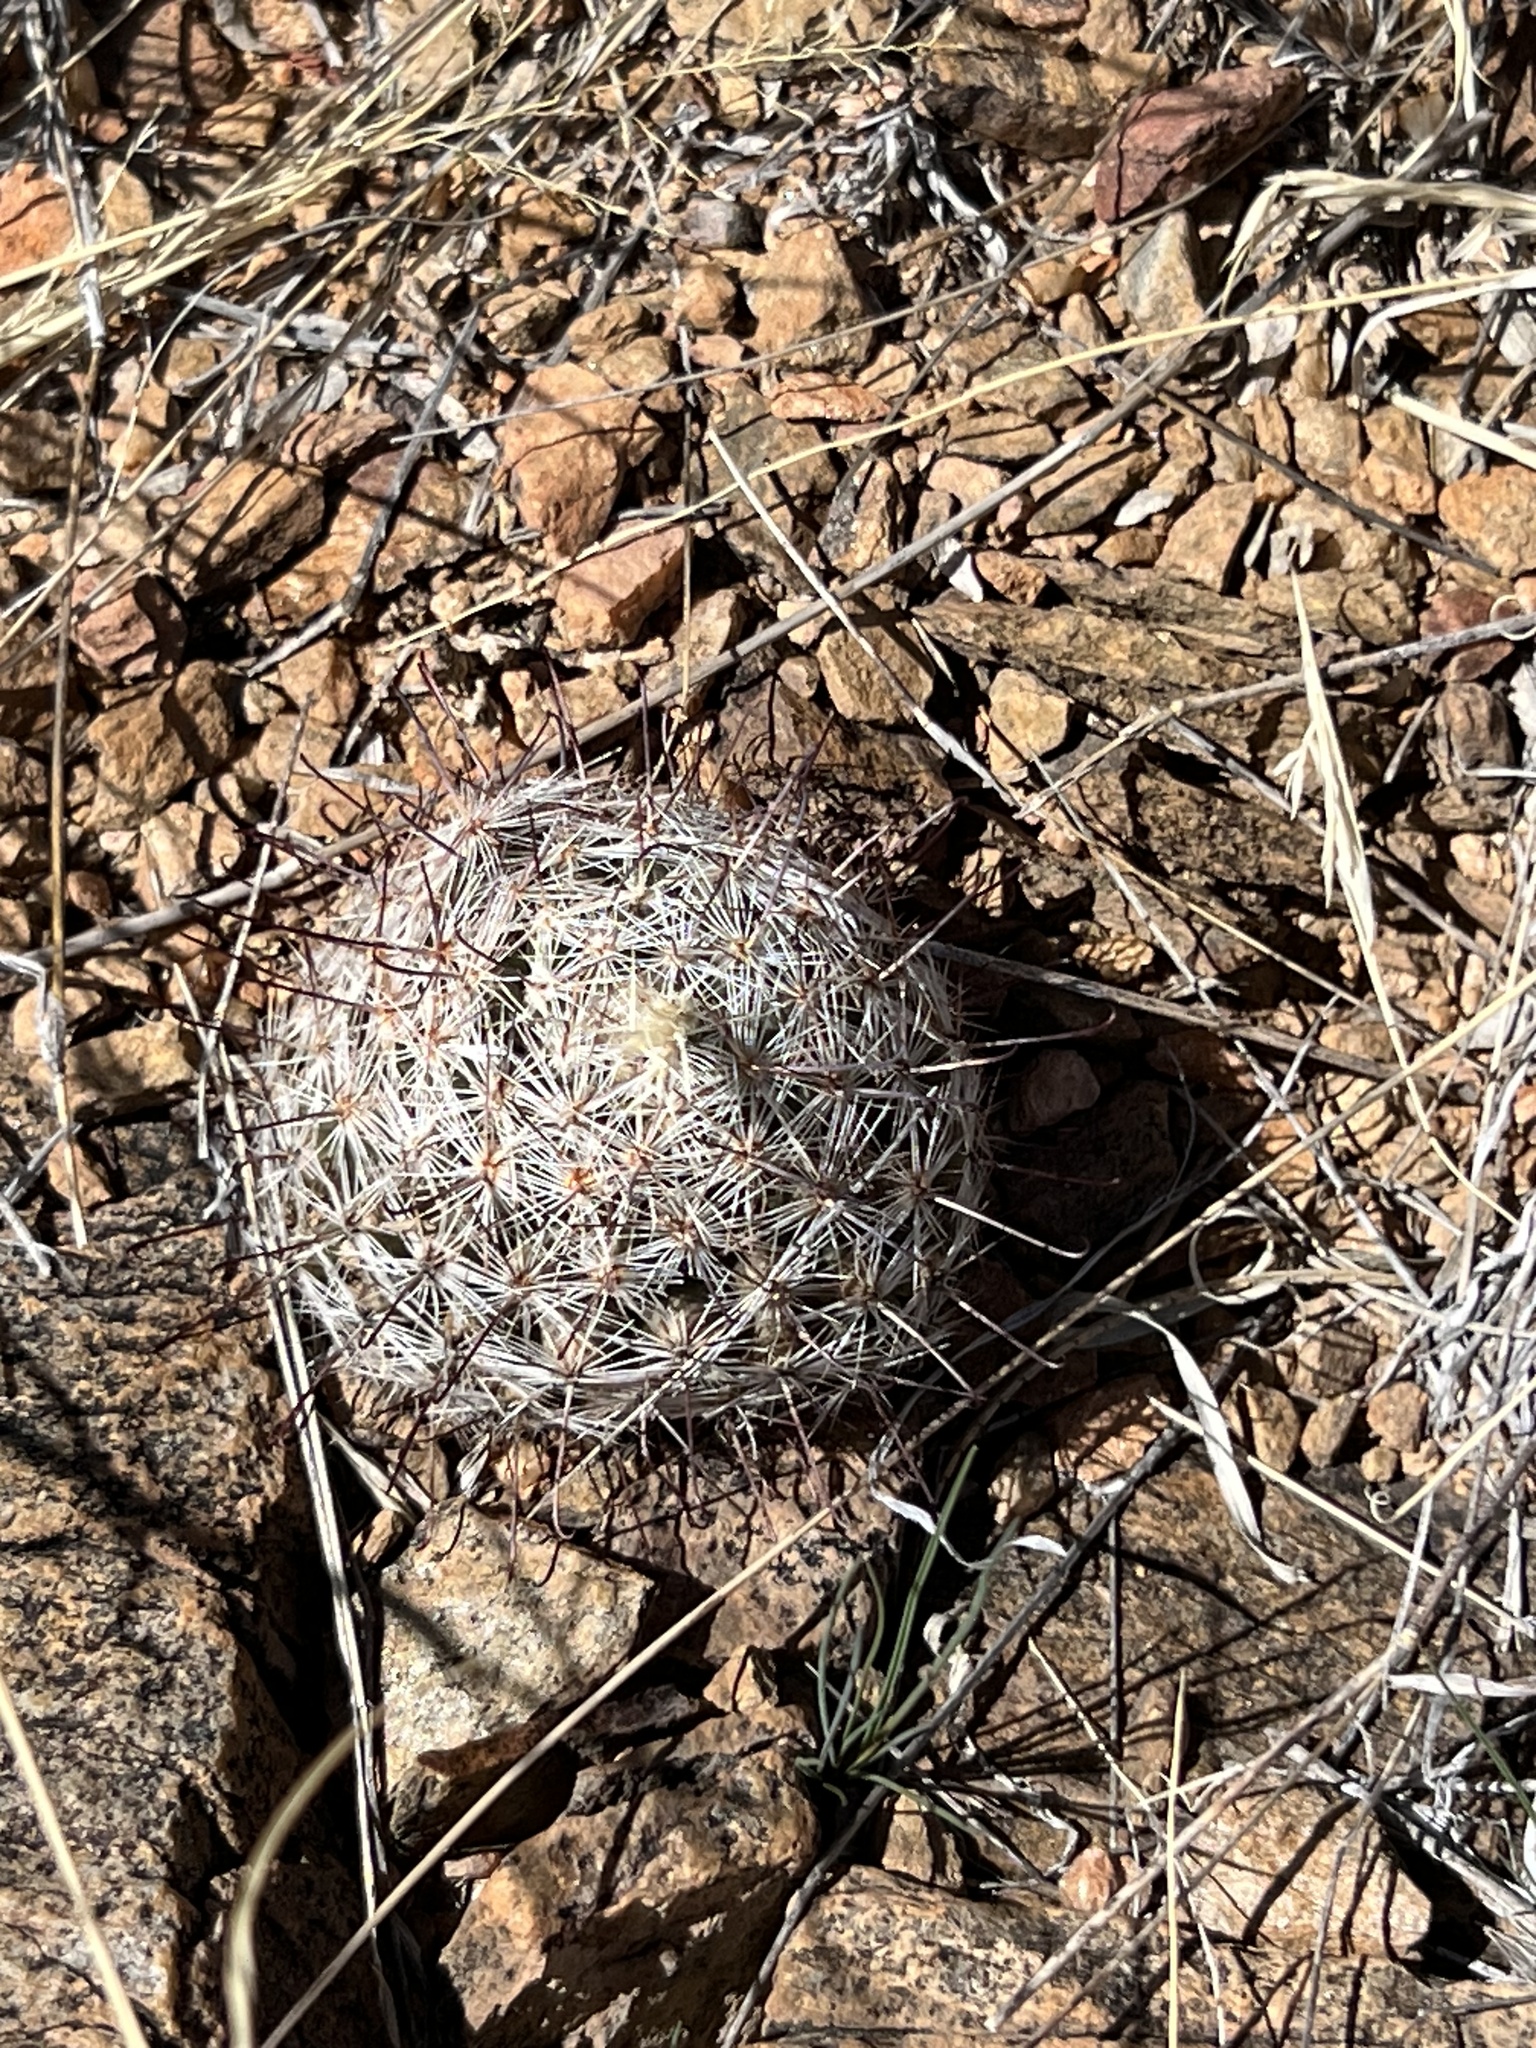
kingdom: Plantae
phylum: Tracheophyta
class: Magnoliopsida
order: Caryophyllales
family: Cactaceae
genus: Cochemiea
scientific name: Cochemiea grahamii
